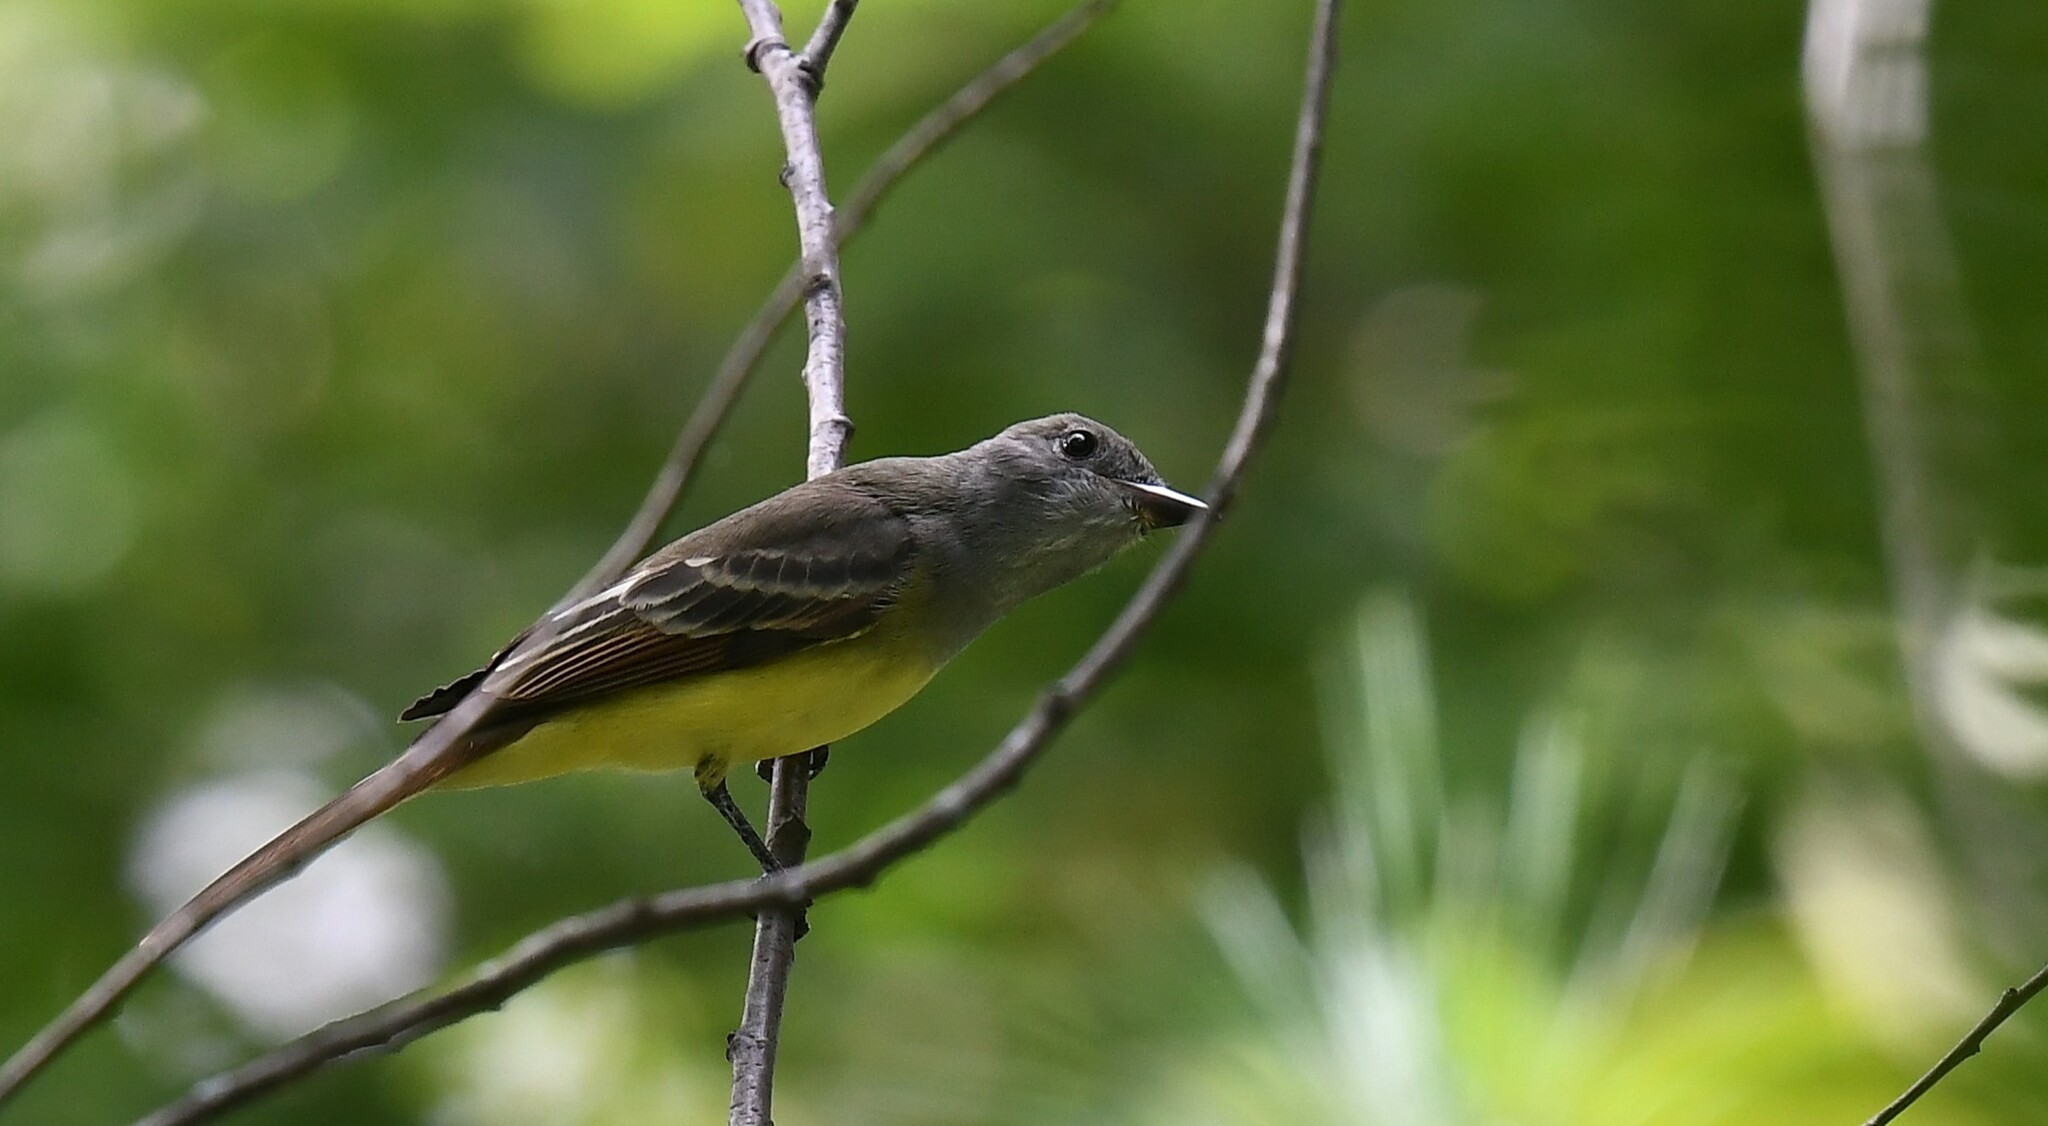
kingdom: Animalia
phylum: Chordata
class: Aves
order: Passeriformes
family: Tyrannidae
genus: Myiarchus
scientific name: Myiarchus crinitus
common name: Great crested flycatcher
